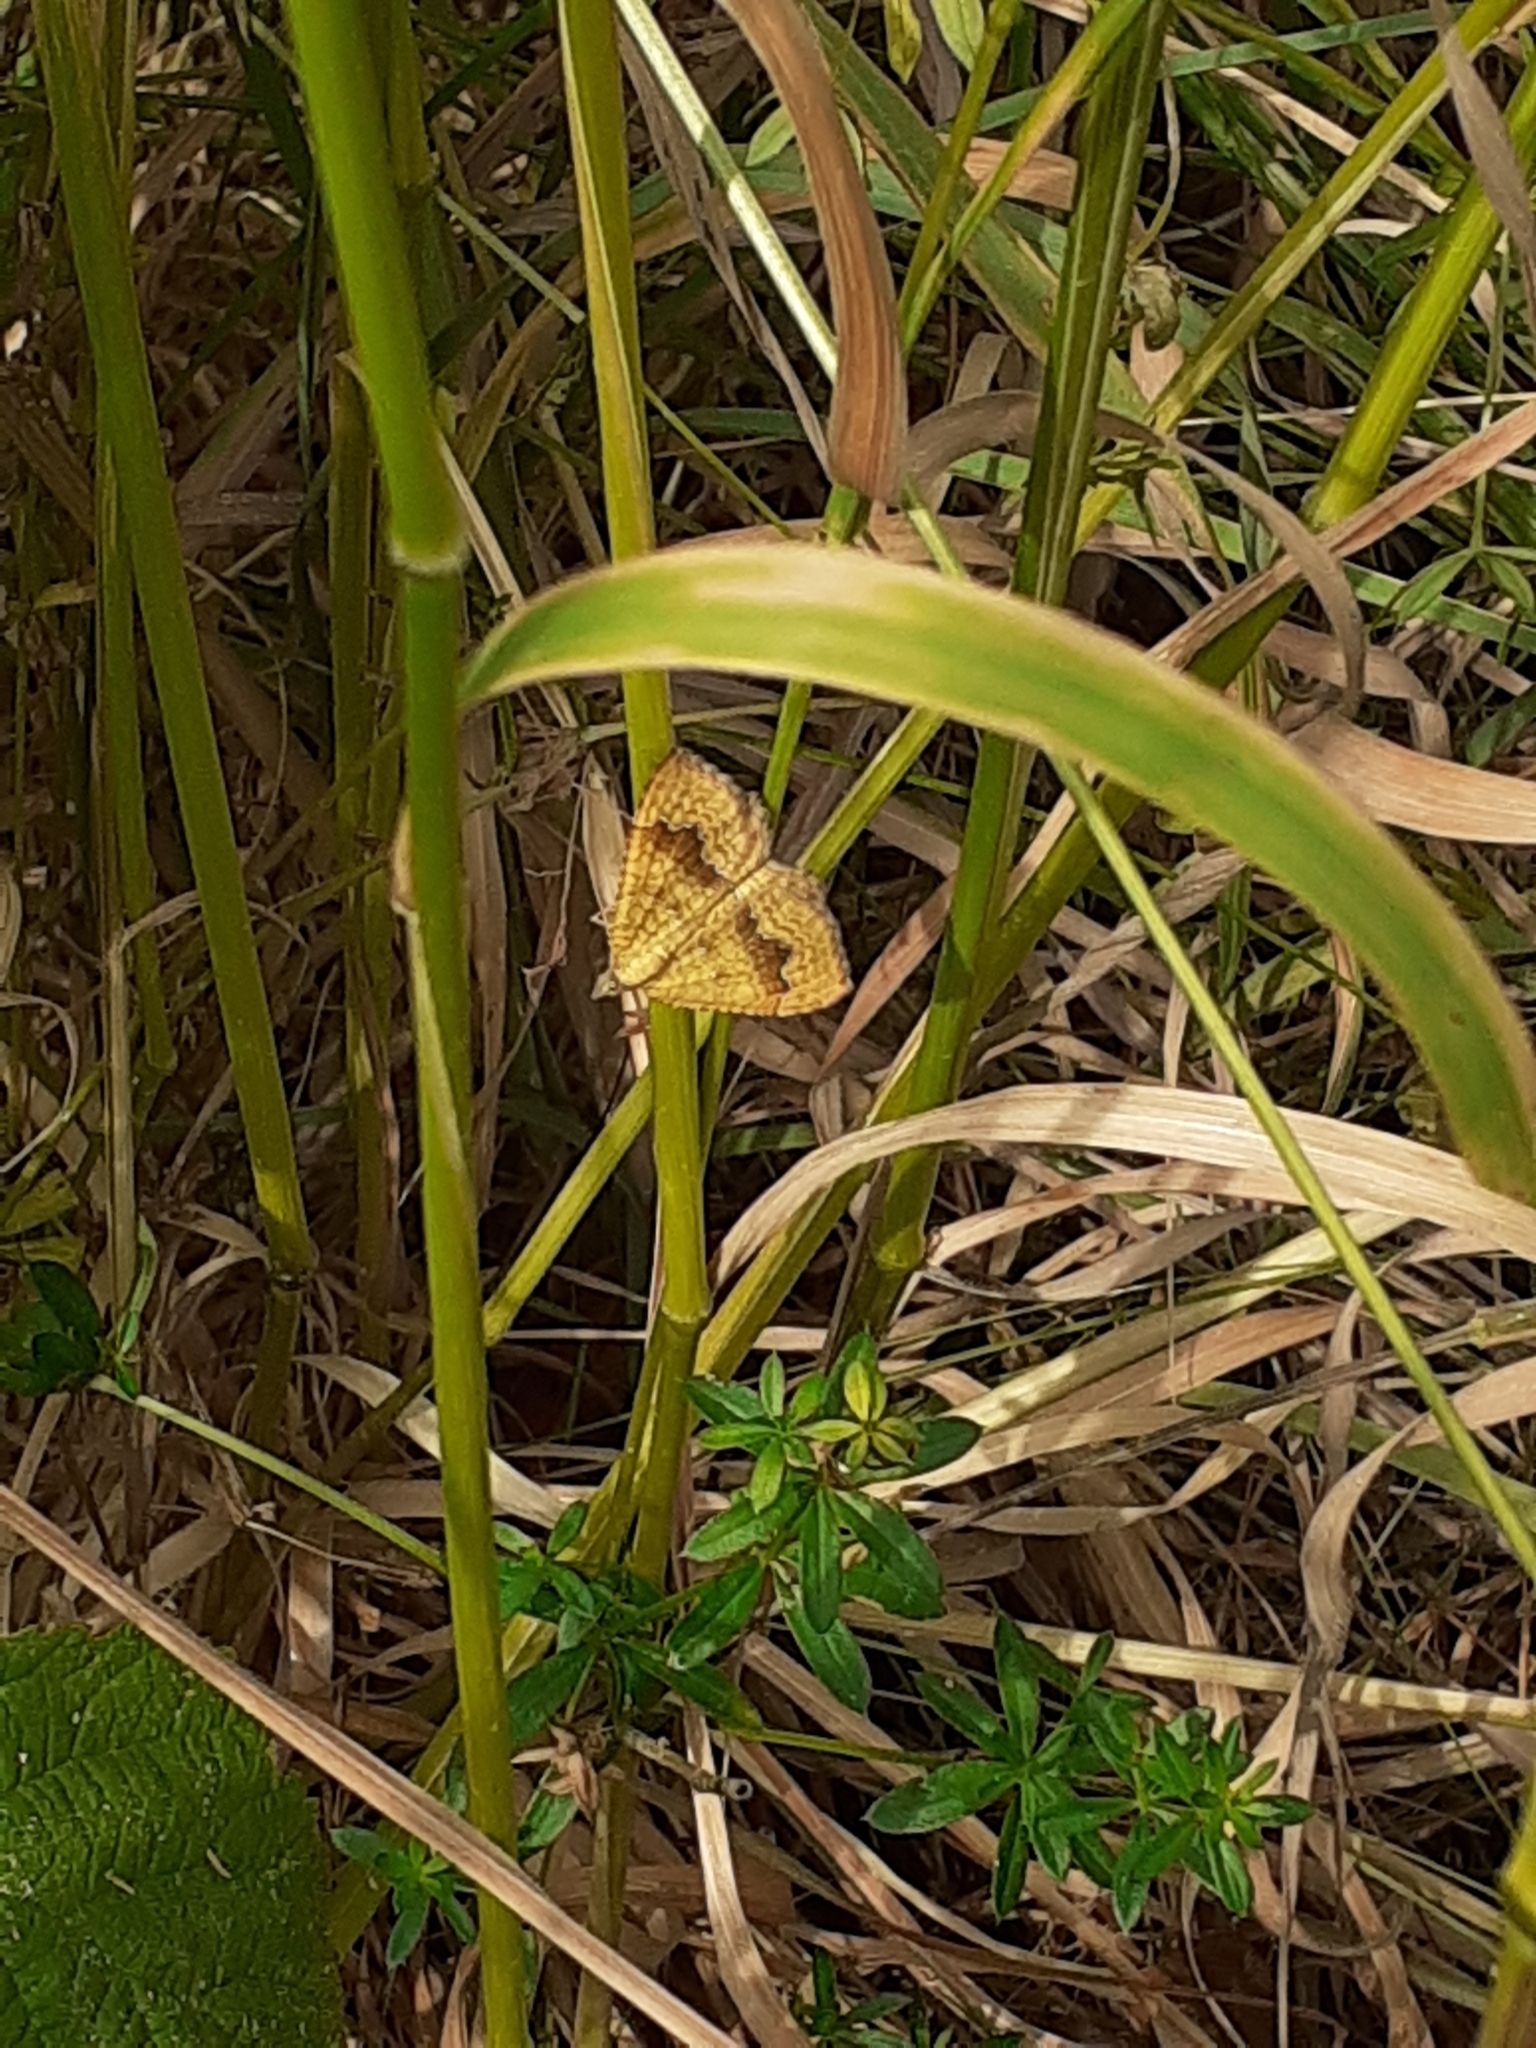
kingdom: Animalia
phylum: Arthropoda
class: Insecta
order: Lepidoptera
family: Geometridae
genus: Camptogramma
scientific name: Camptogramma bilineata
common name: Yellow shell
